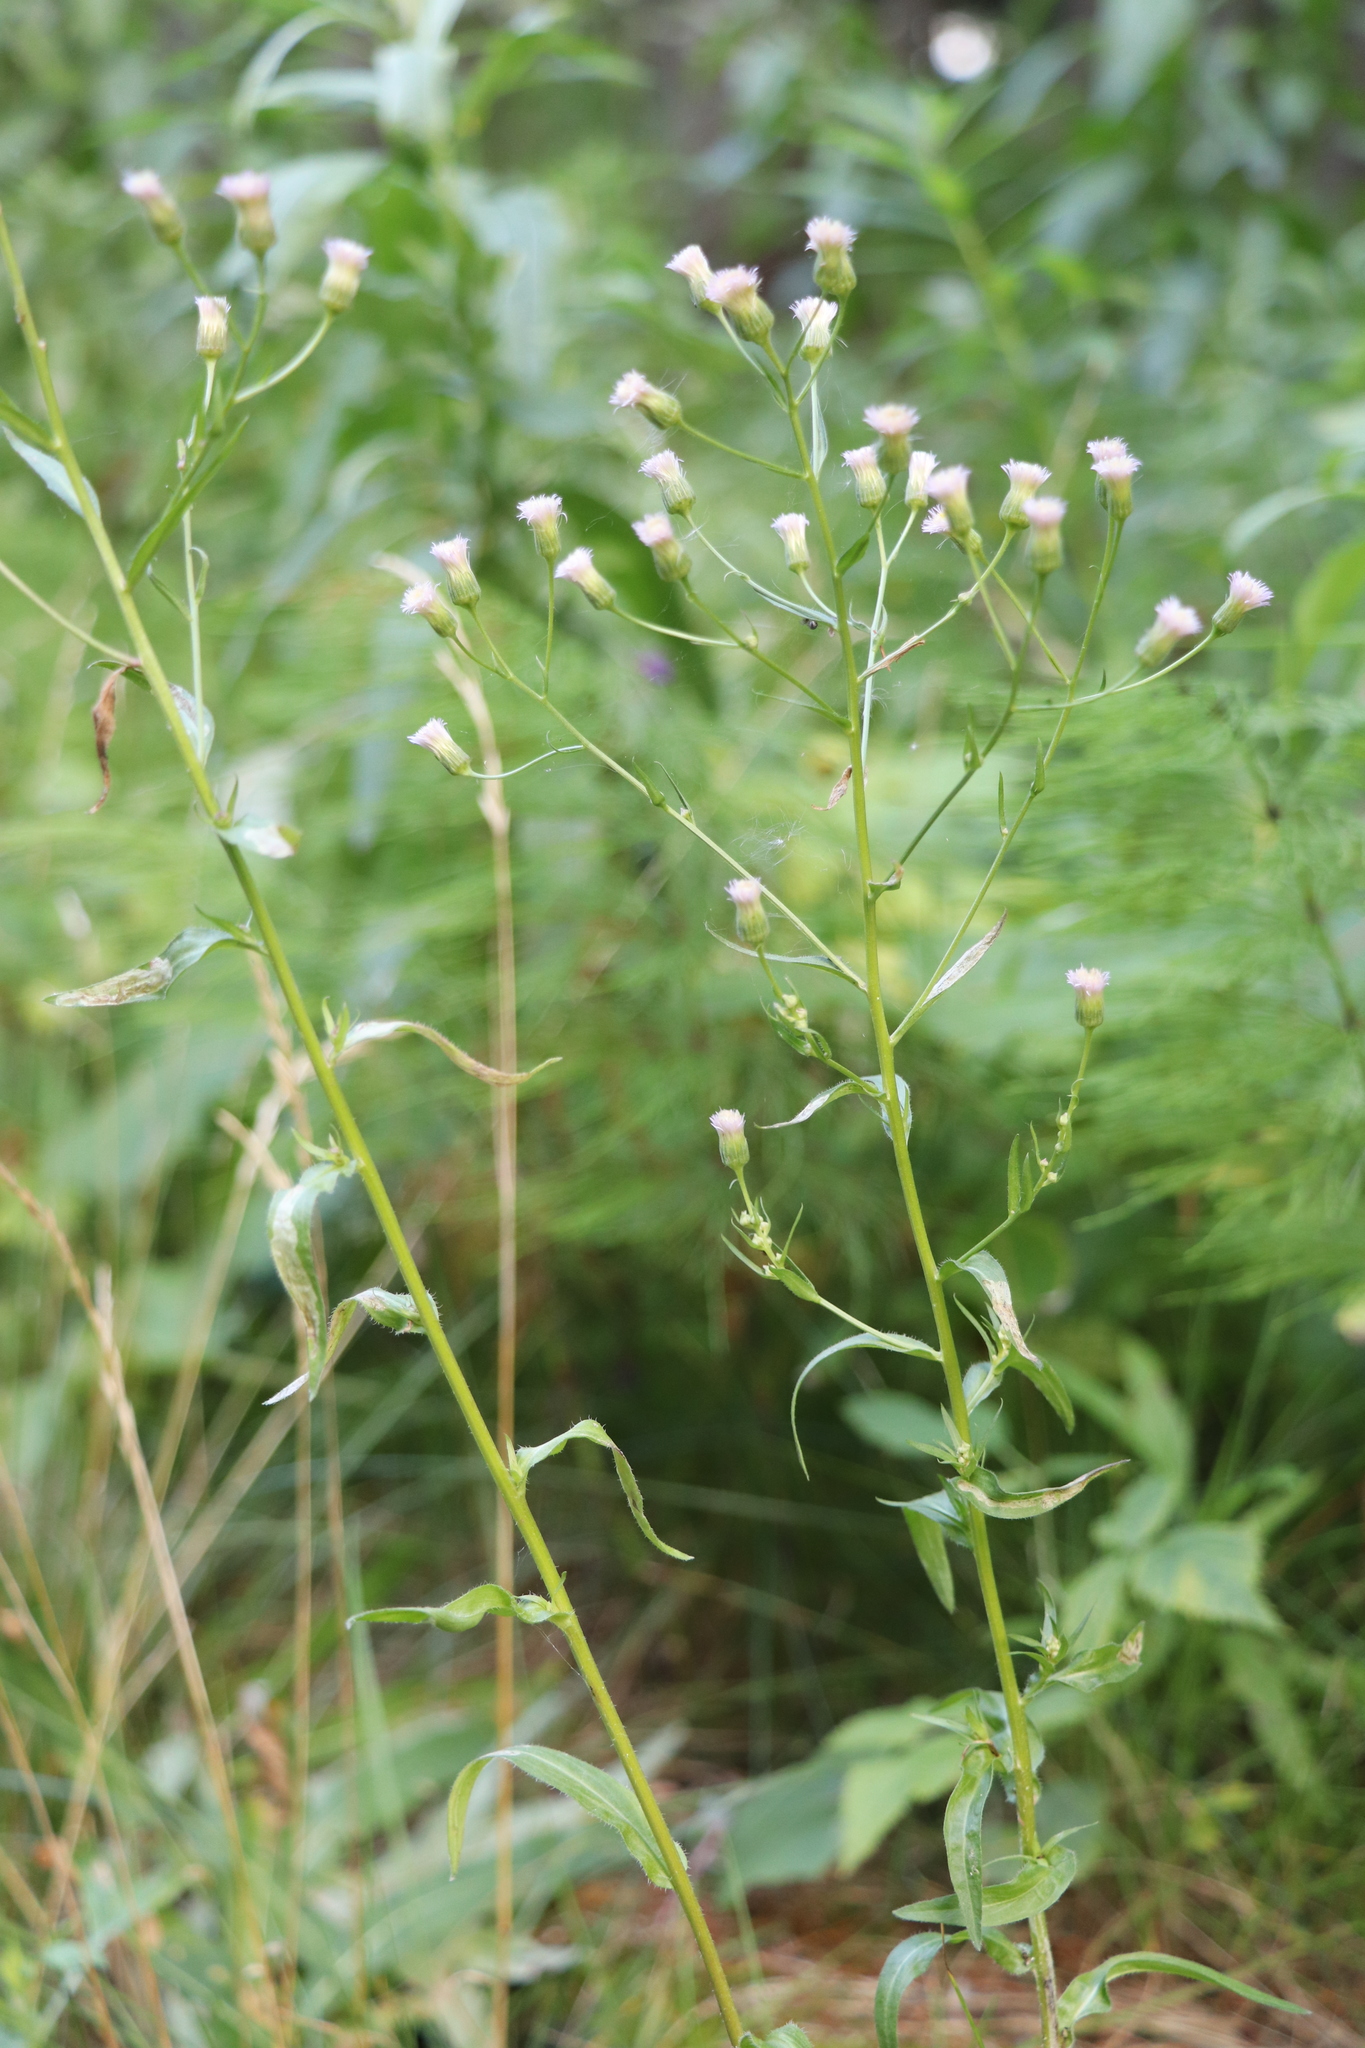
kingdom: Plantae
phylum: Tracheophyta
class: Magnoliopsida
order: Asterales
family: Asteraceae
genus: Erigeron
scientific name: Erigeron acris
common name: Blue fleabane
